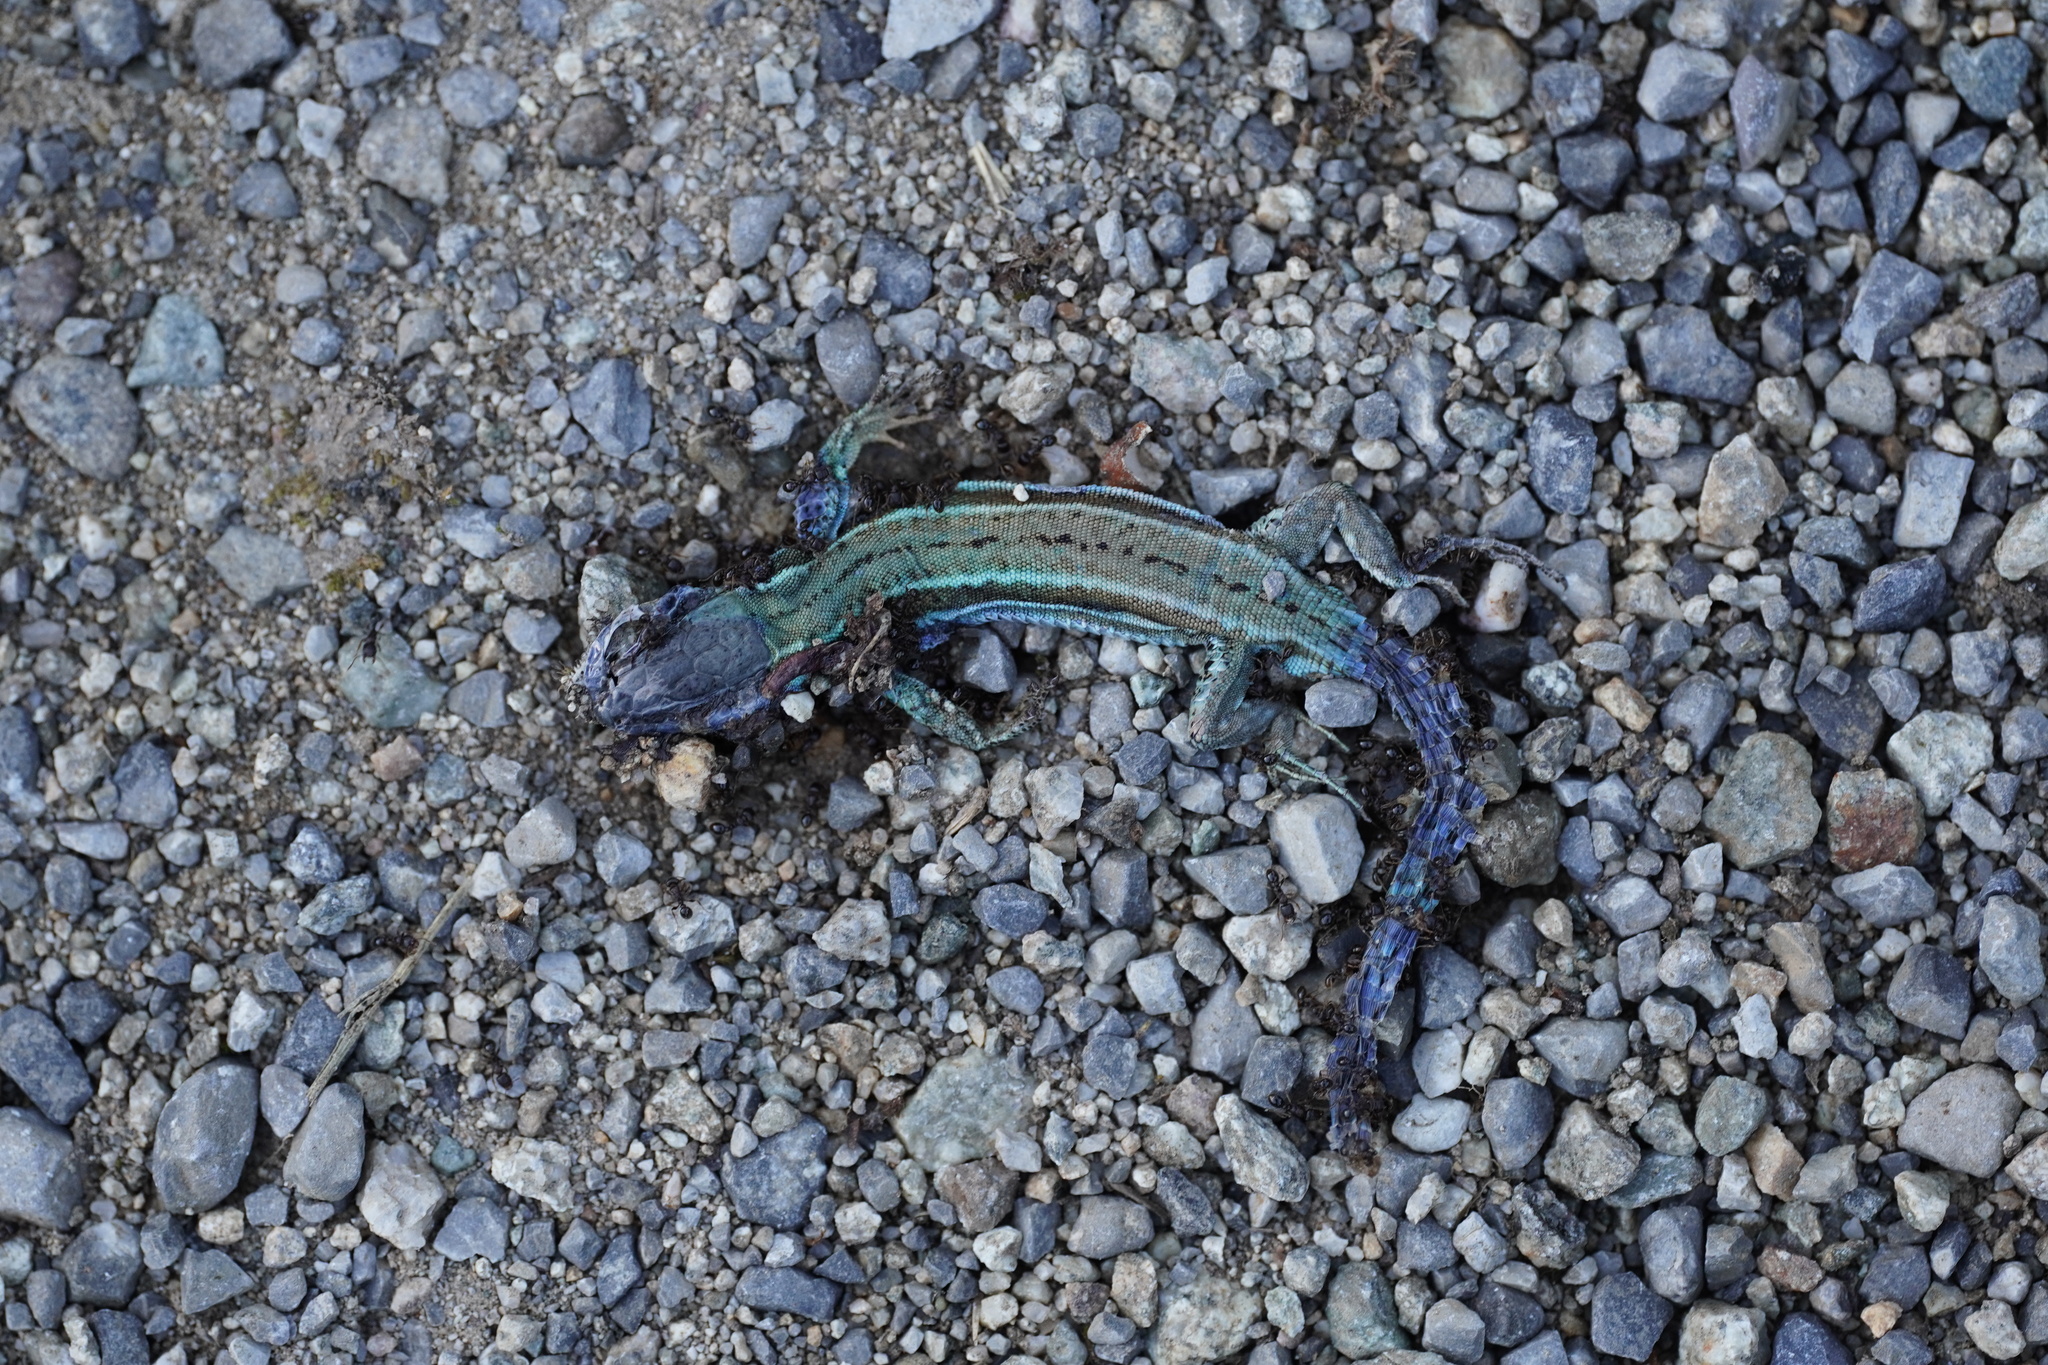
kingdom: Animalia
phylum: Chordata
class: Squamata
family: Lacertidae
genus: Podarcis
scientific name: Podarcis muralis
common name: Common wall lizard
